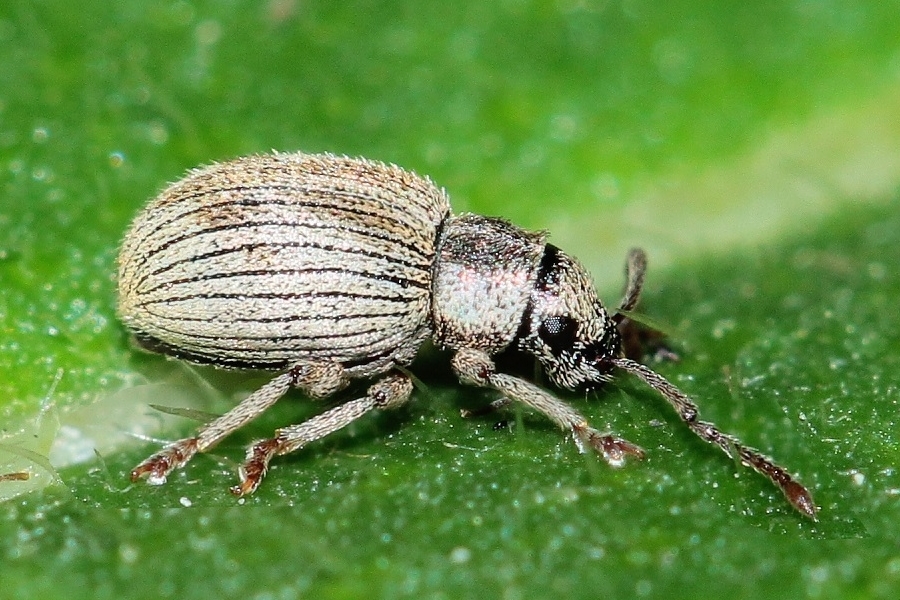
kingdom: Animalia
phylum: Arthropoda
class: Insecta
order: Coleoptera
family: Curculionidae
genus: Argoptochus
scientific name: Argoptochus subsignatus
